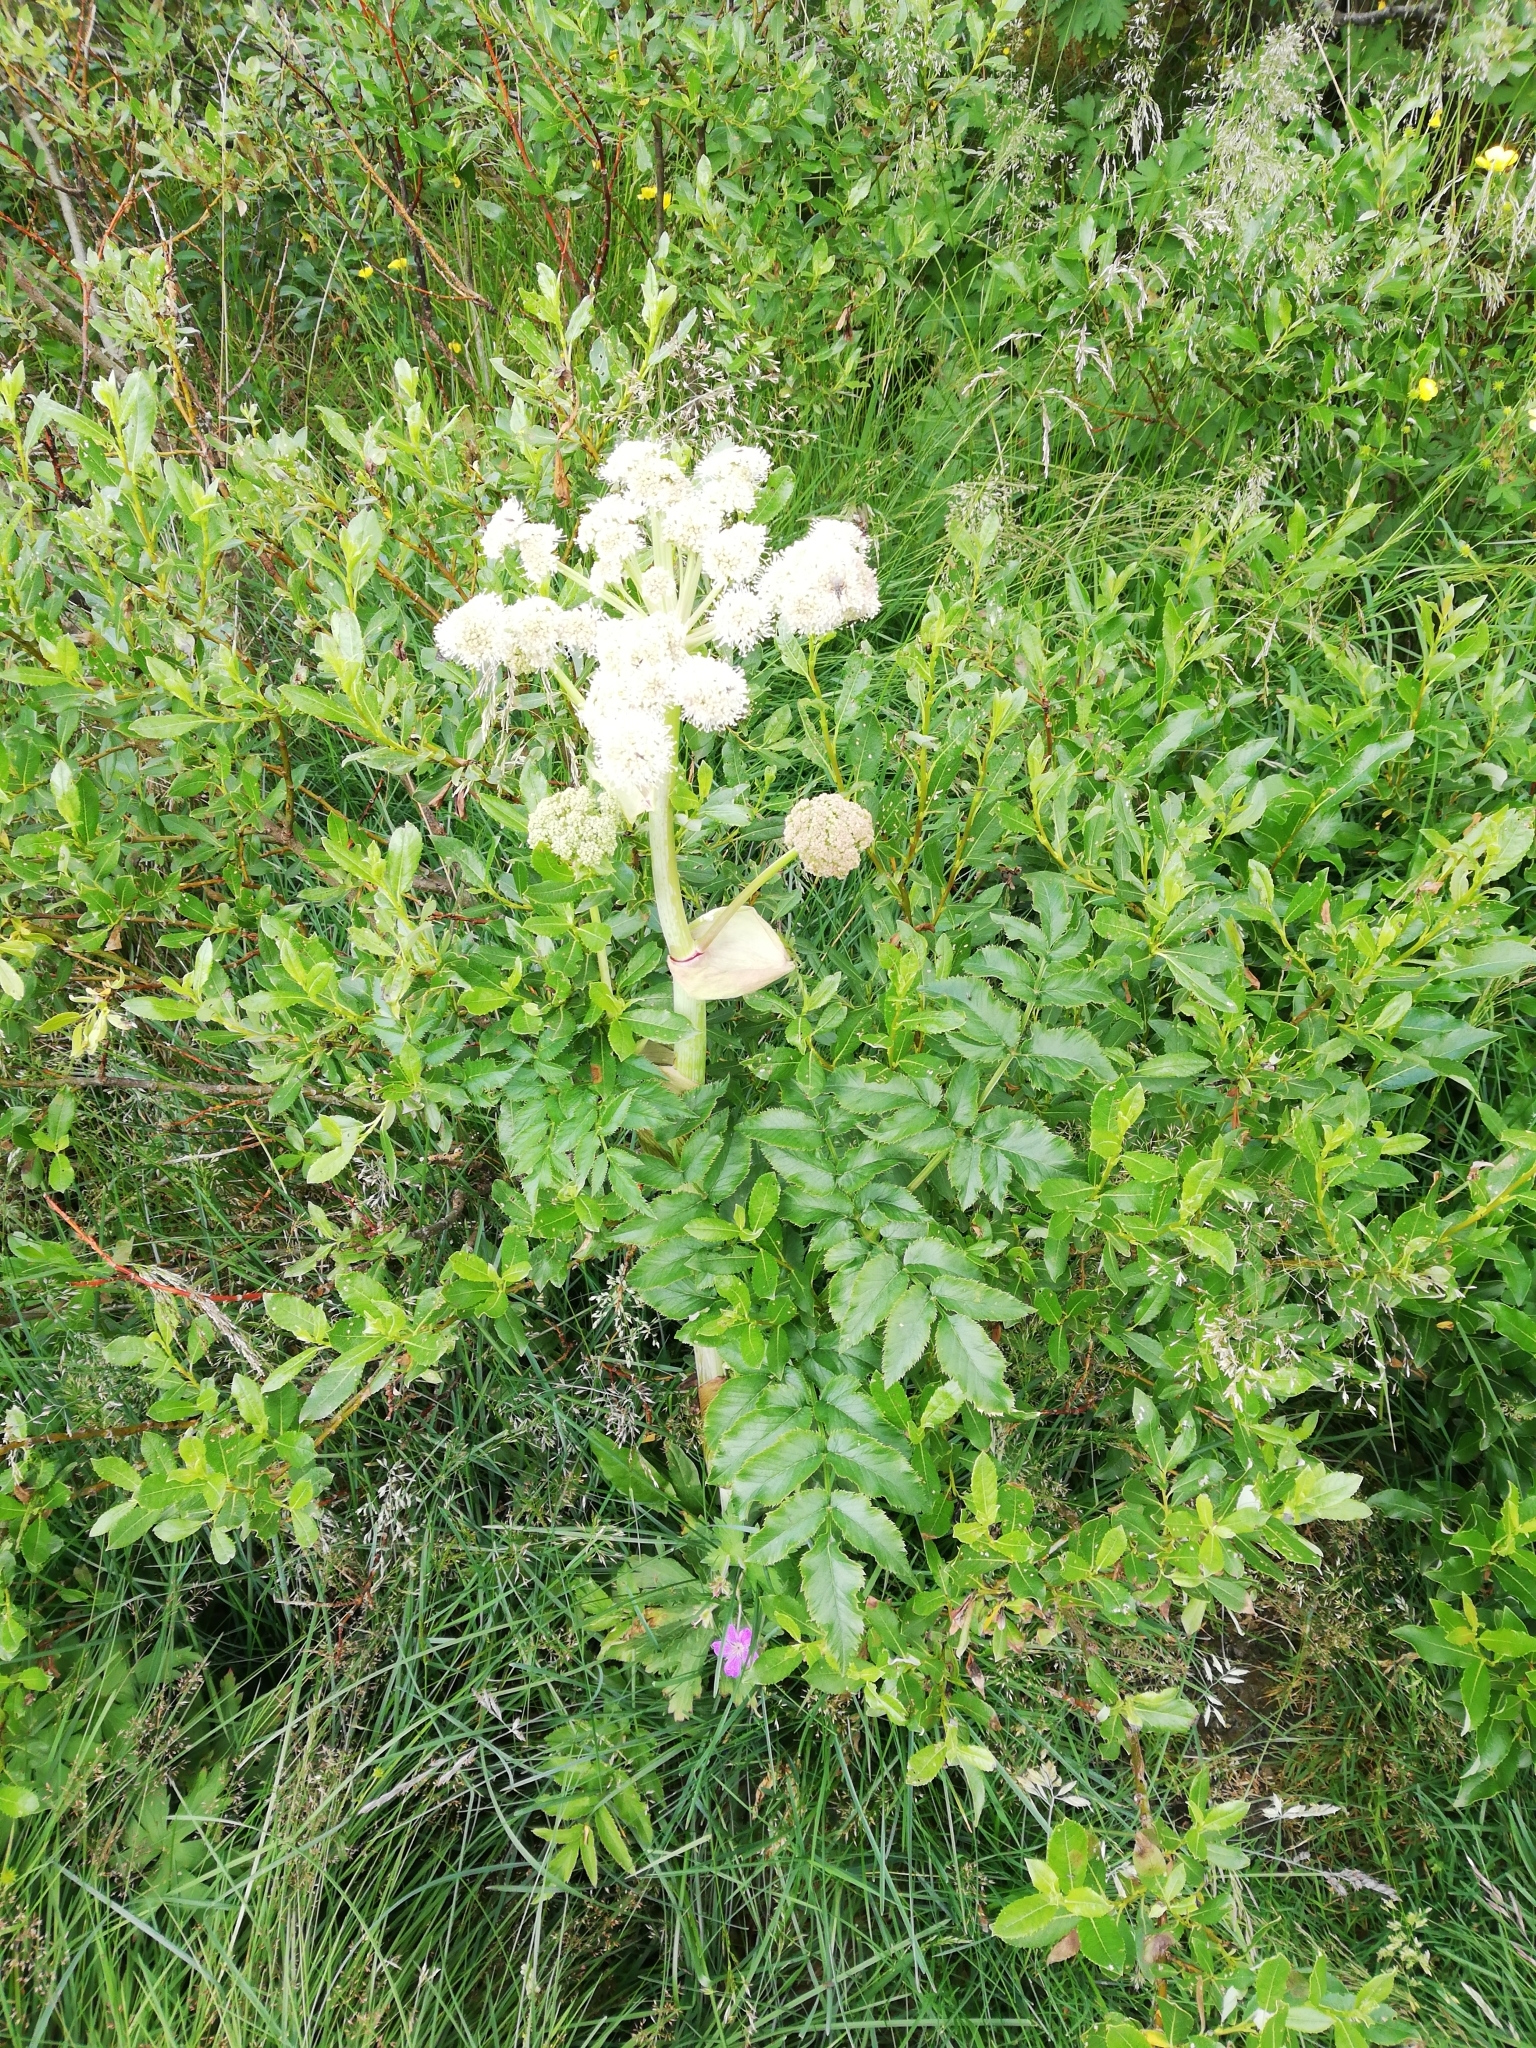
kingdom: Plantae
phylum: Tracheophyta
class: Magnoliopsida
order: Apiales
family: Apiaceae
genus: Angelica
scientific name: Angelica sylvestris
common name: Wild angelica
